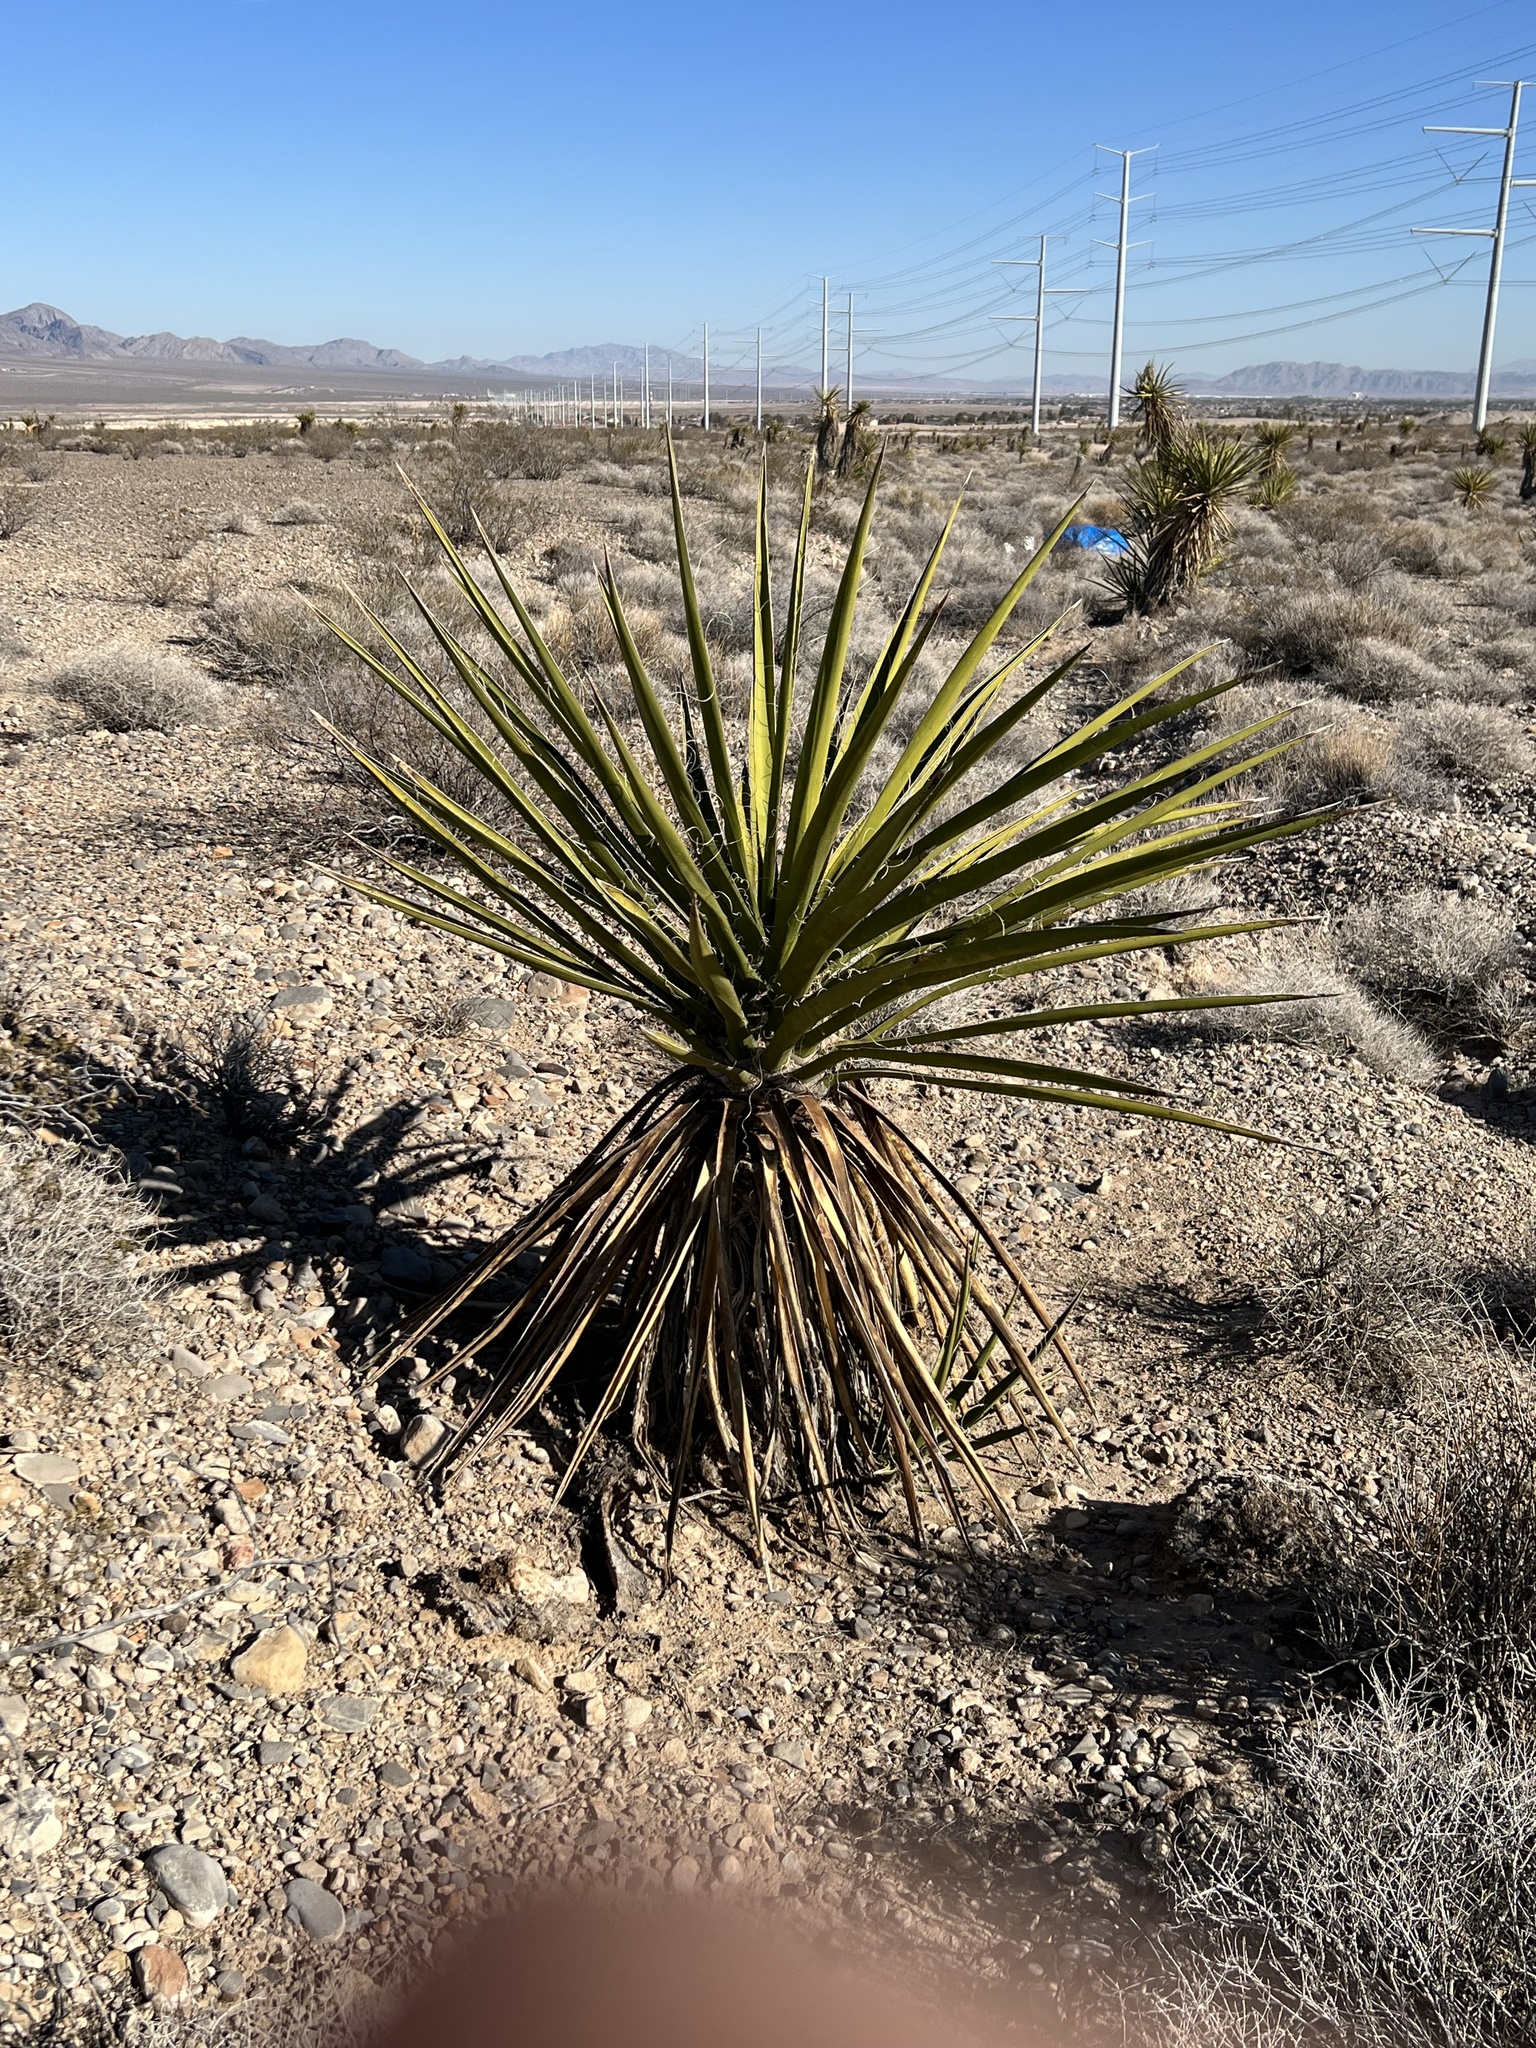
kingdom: Plantae
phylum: Tracheophyta
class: Liliopsida
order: Asparagales
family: Asparagaceae
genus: Yucca
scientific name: Yucca schidigera
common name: Mojave yucca
